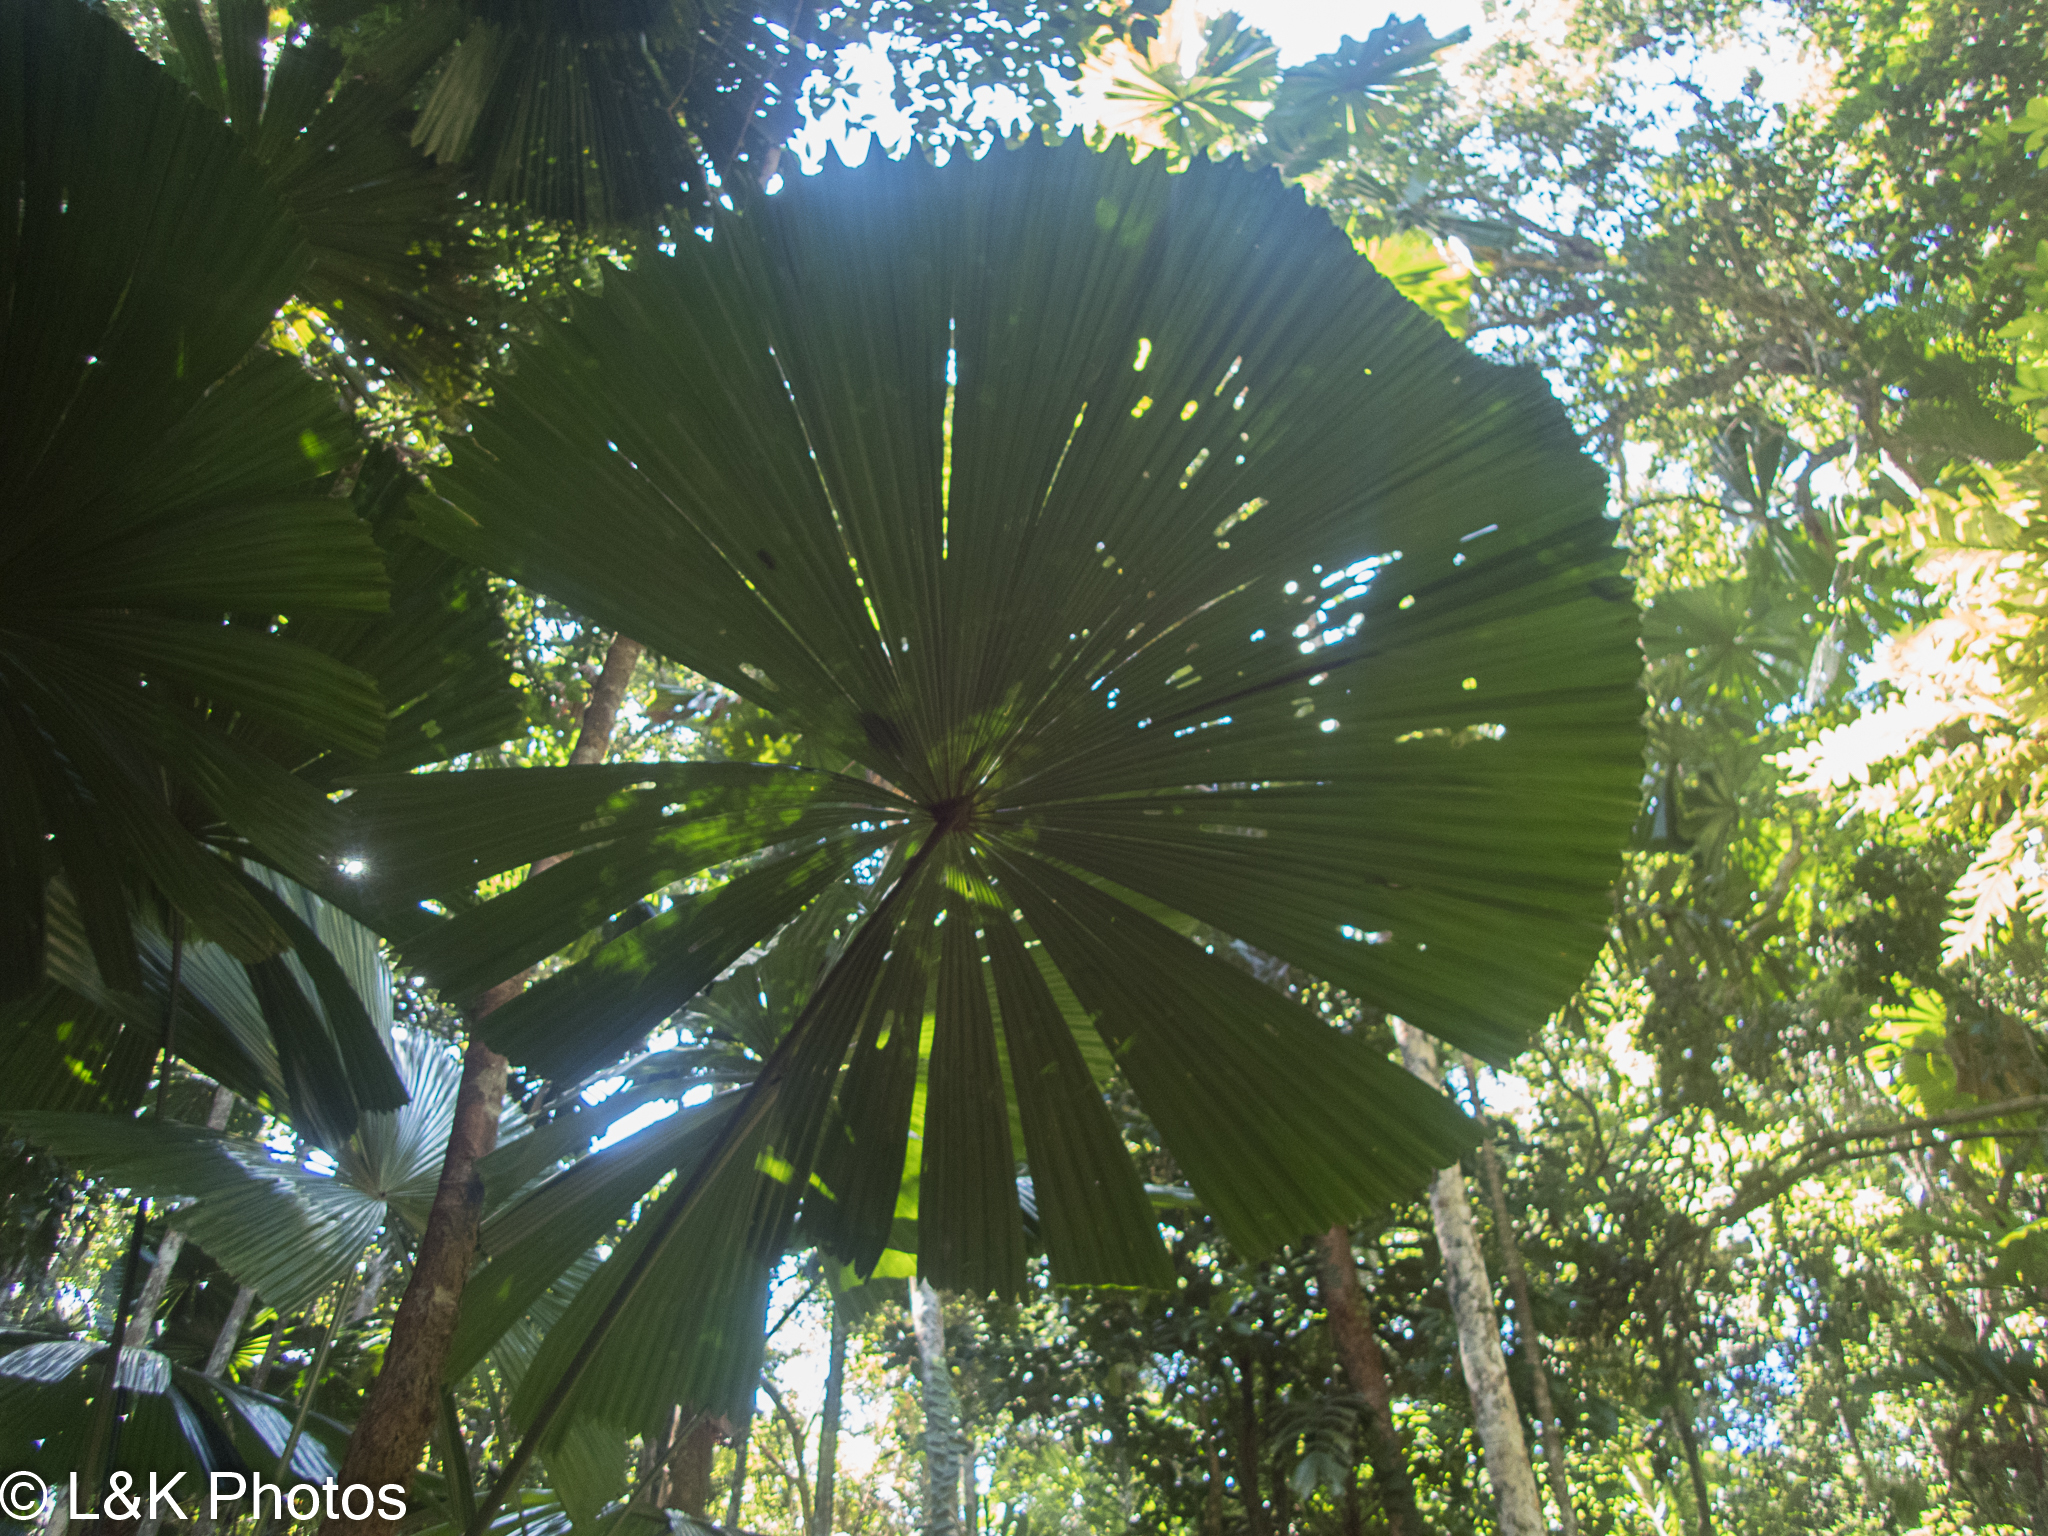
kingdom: Plantae
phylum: Tracheophyta
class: Liliopsida
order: Arecales
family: Arecaceae
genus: Licuala
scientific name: Licuala ramsayi
